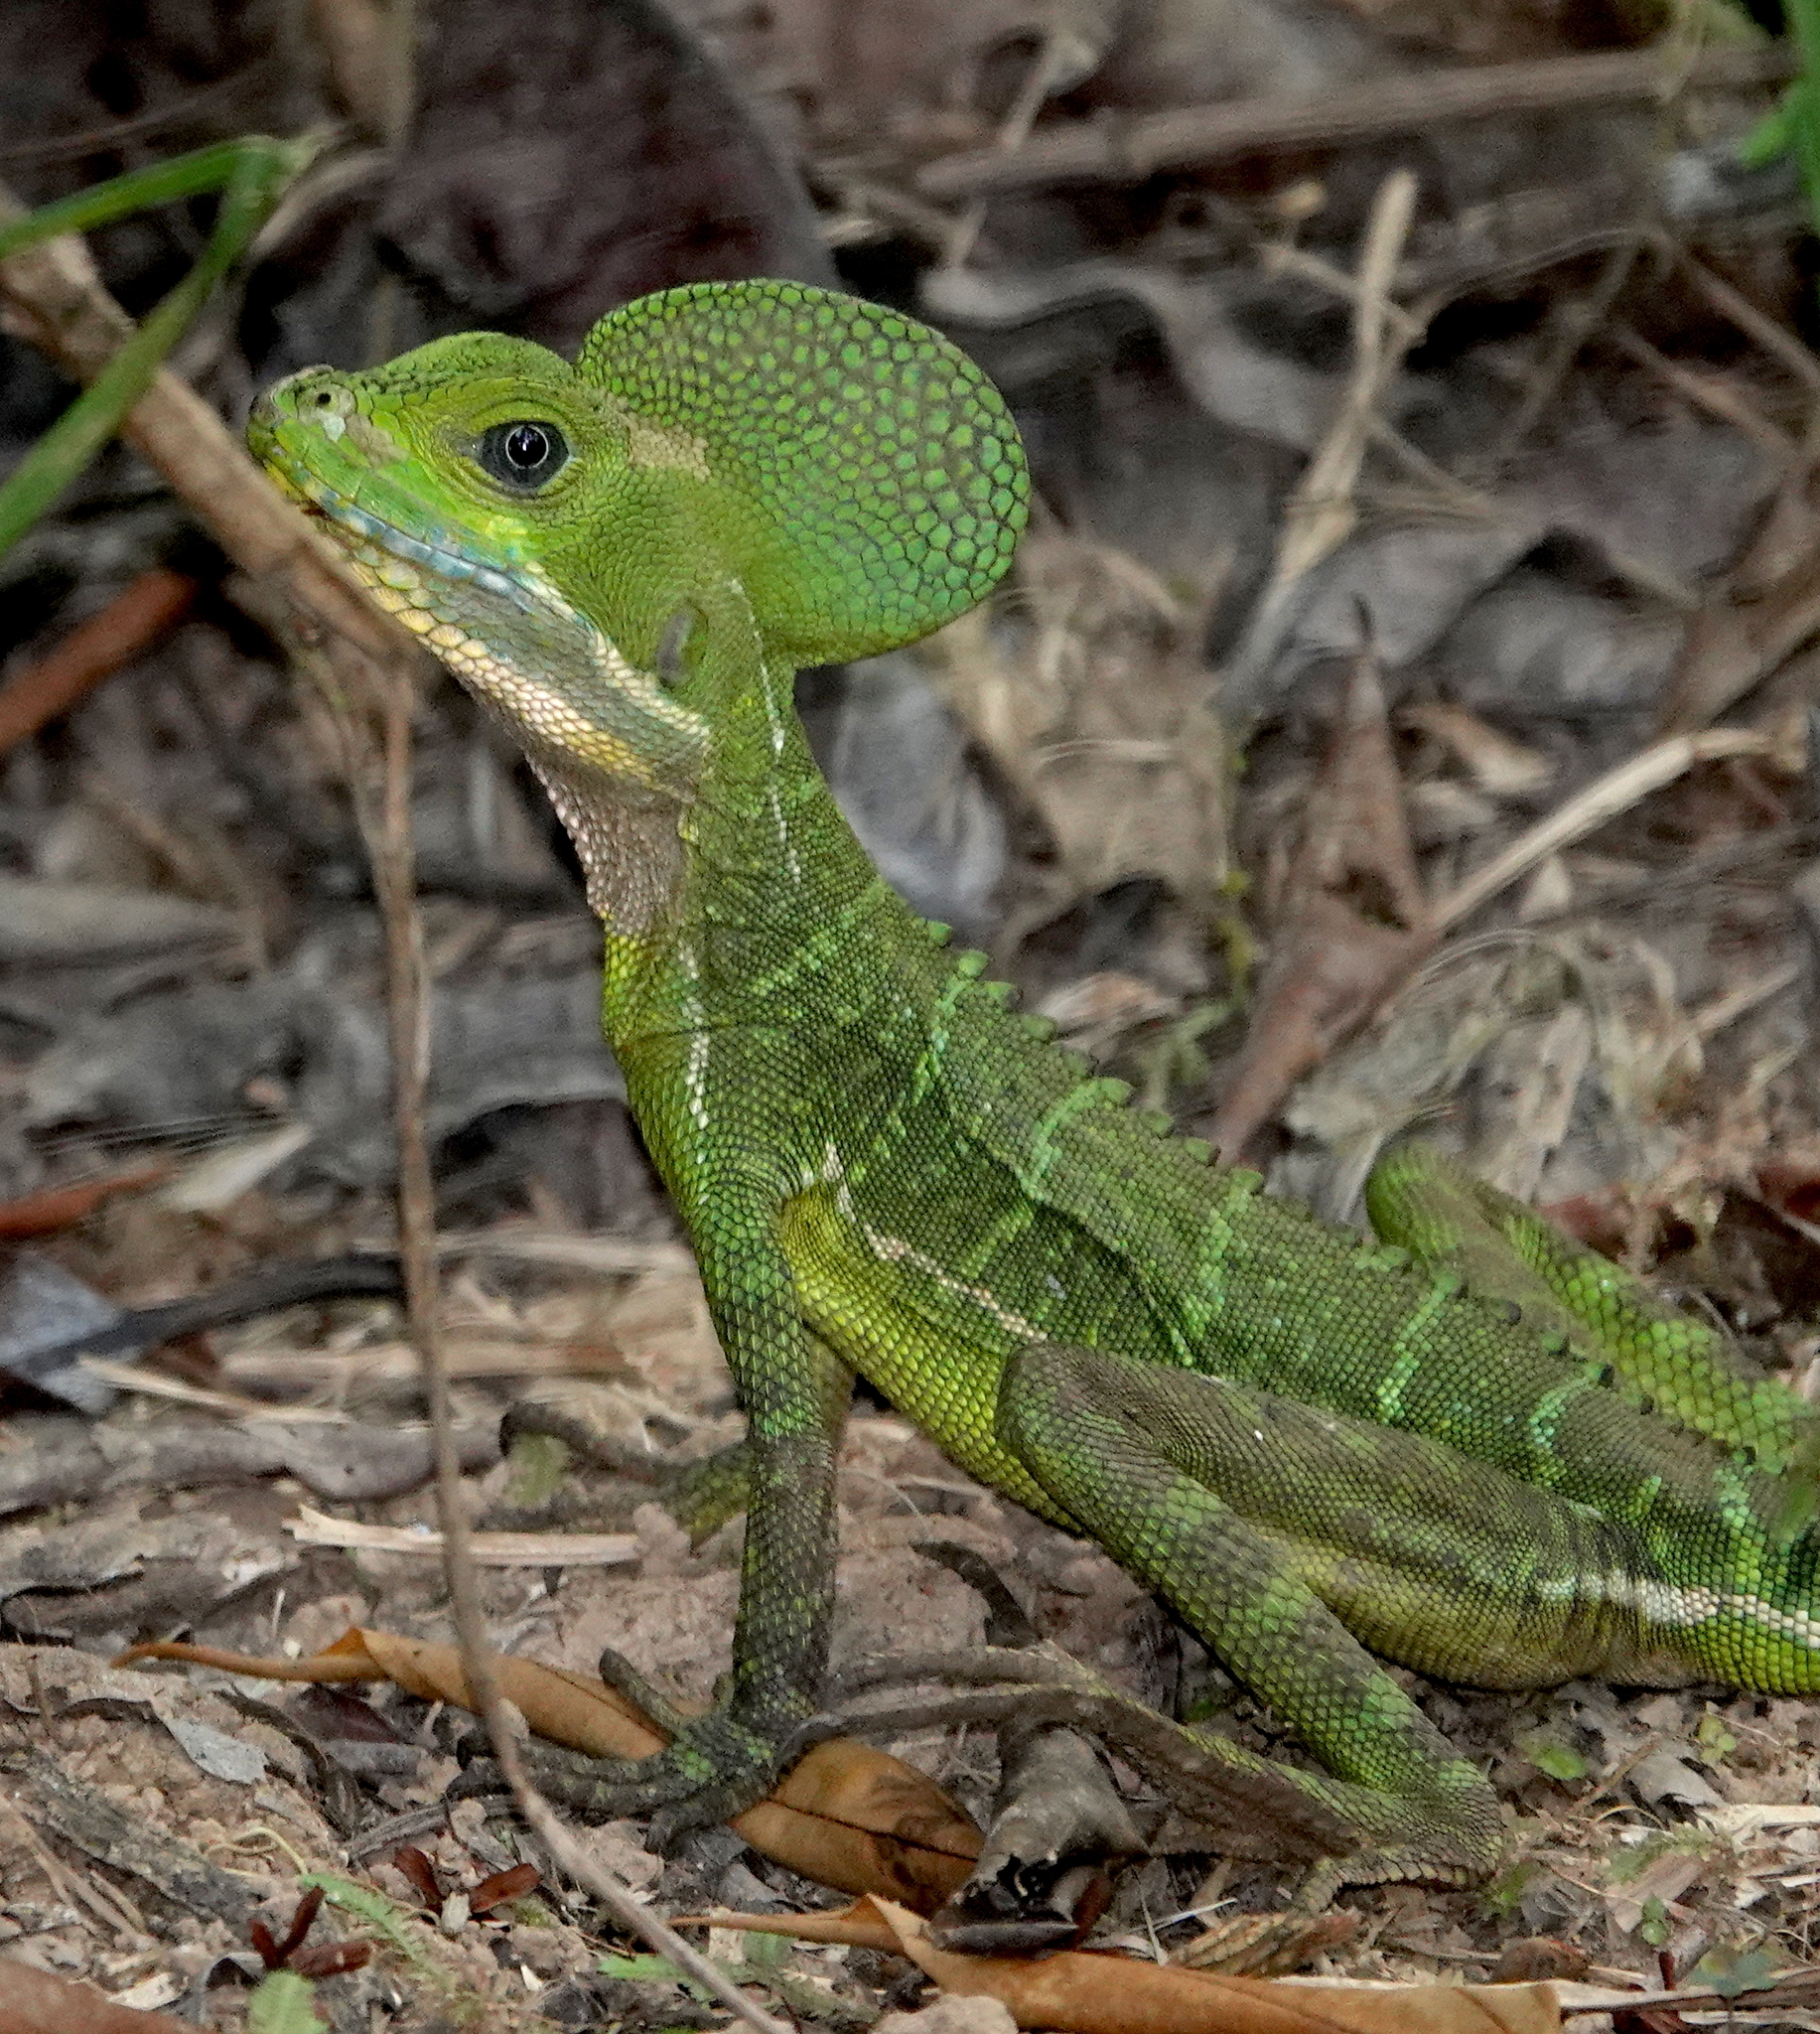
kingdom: Animalia
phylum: Chordata
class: Squamata
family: Corytophanidae
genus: Basiliscus
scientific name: Basiliscus galeritus
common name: Western basilisk
